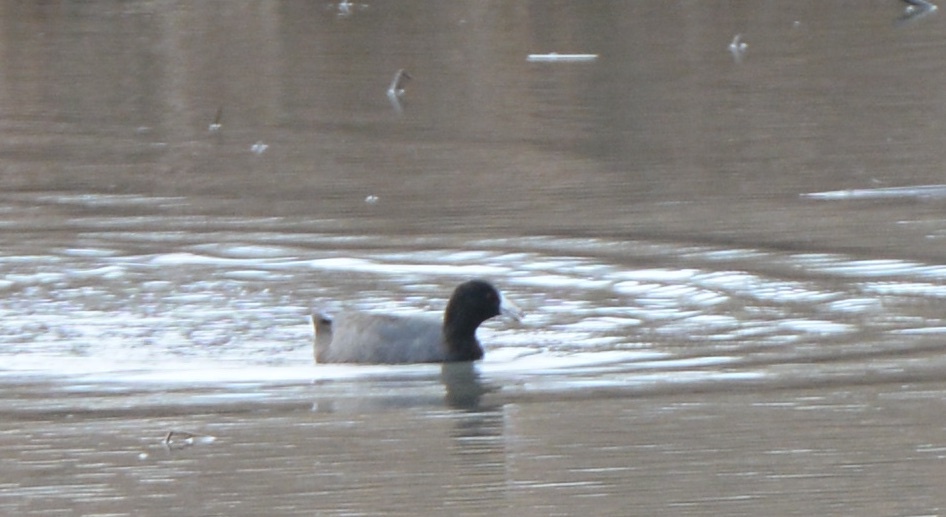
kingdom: Animalia
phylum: Chordata
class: Aves
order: Gruiformes
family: Rallidae
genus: Fulica
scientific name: Fulica americana
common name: American coot
